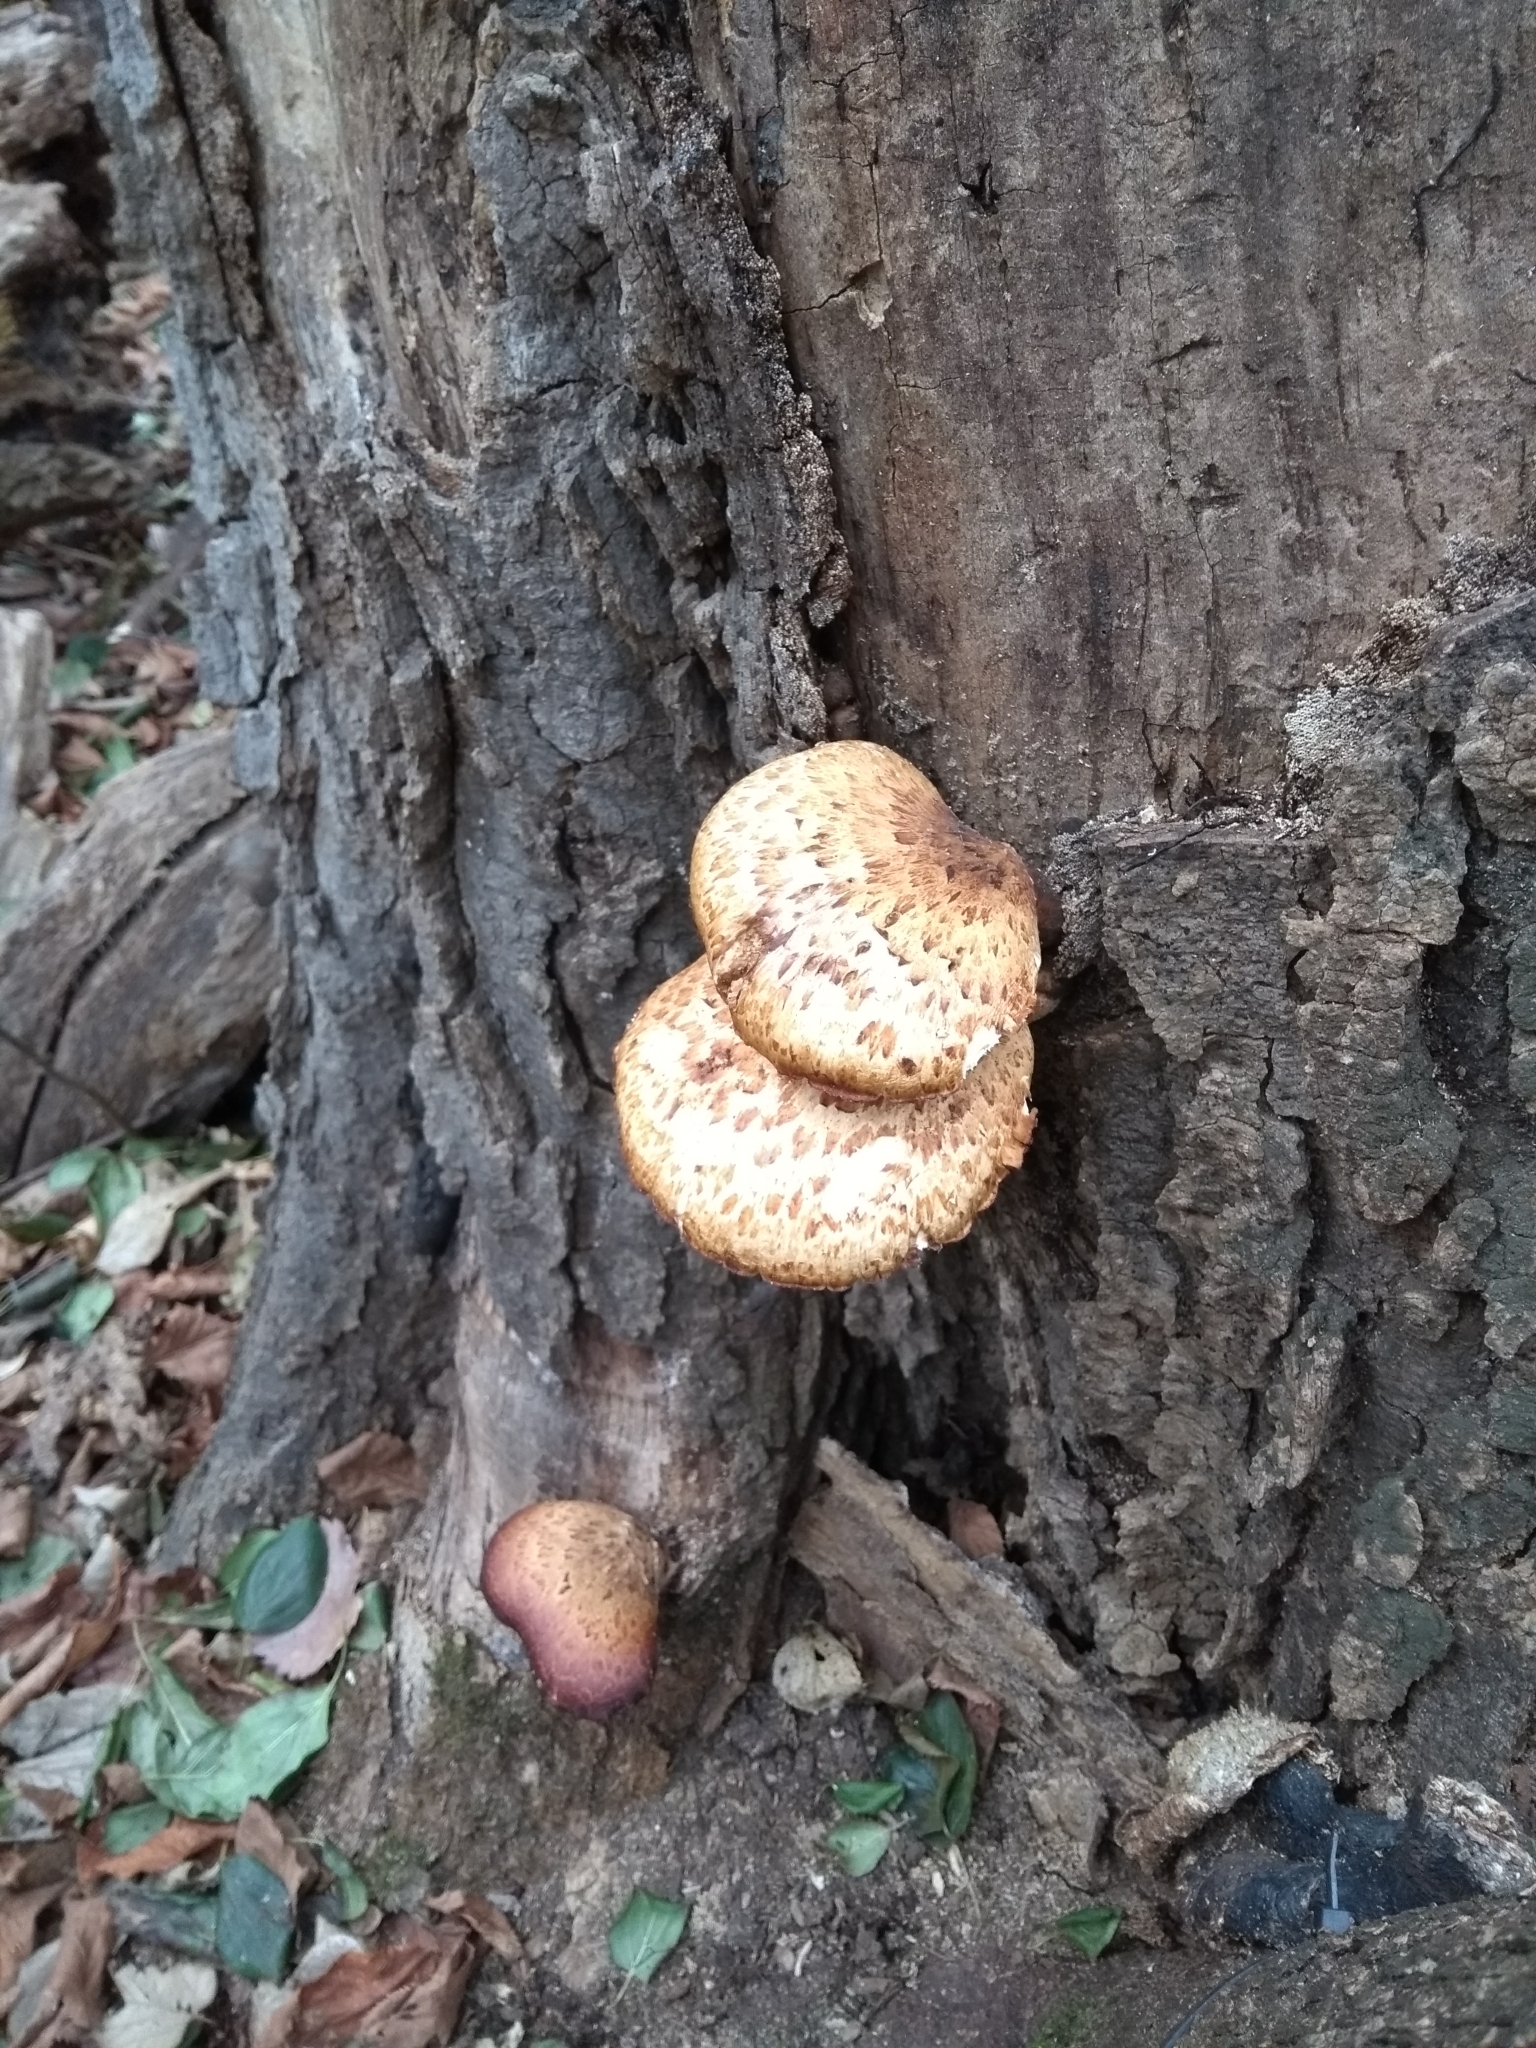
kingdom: Fungi
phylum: Basidiomycota
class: Agaricomycetes
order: Polyporales
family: Polyporaceae
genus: Cerioporus
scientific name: Cerioporus squamosus
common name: Dryad's saddle
